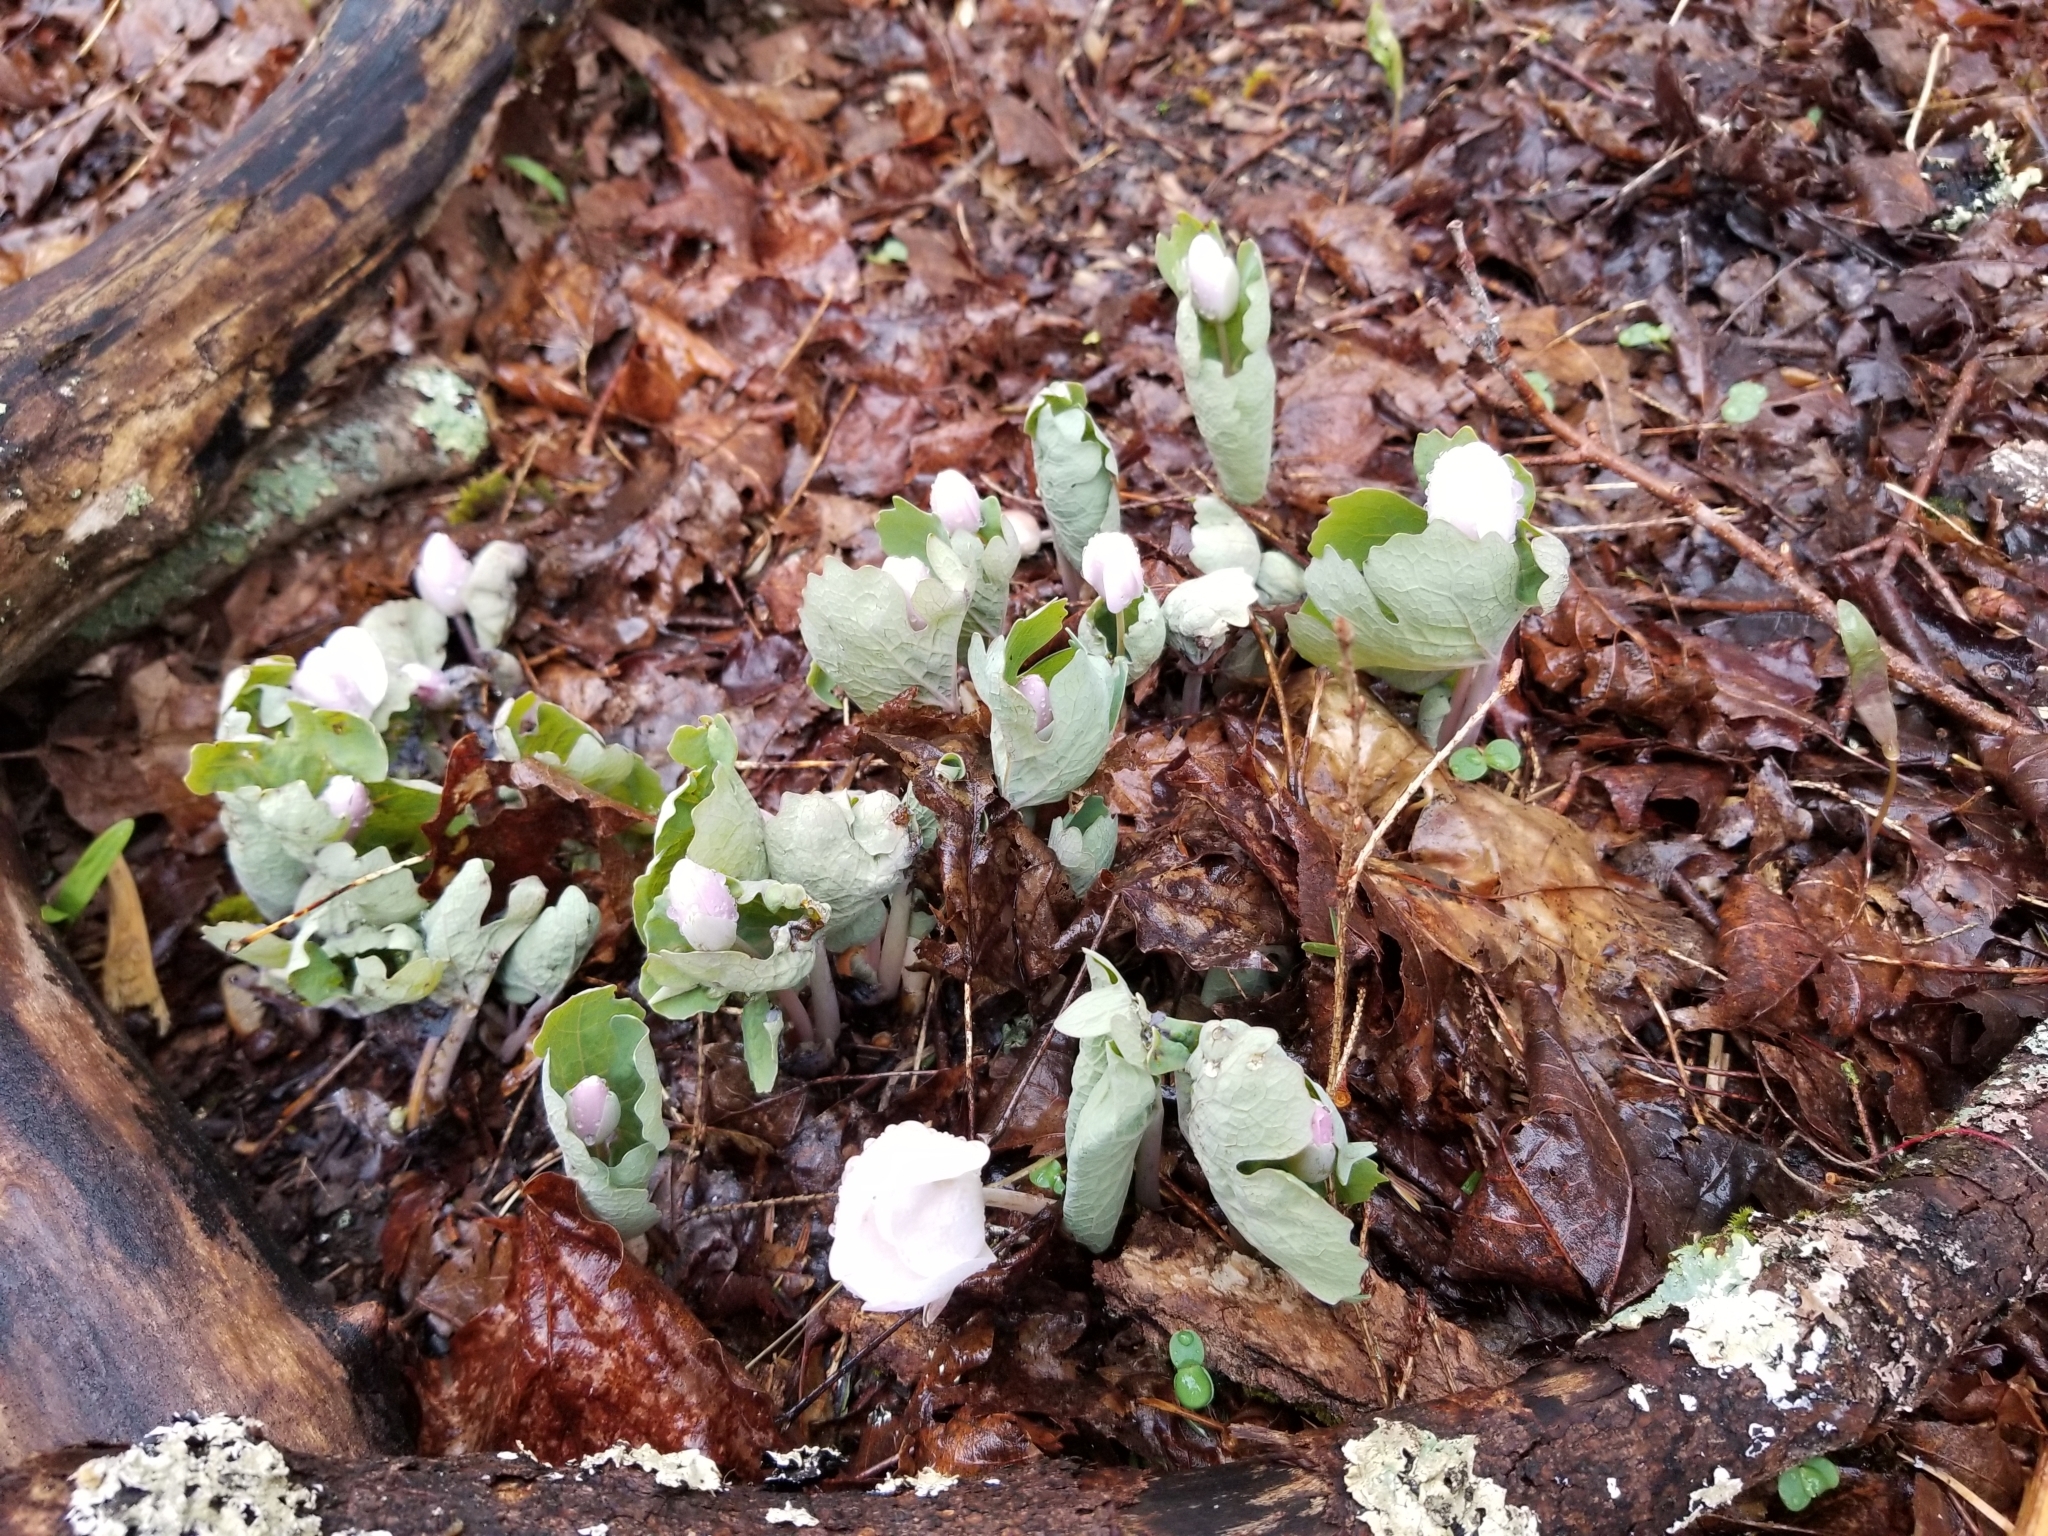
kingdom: Plantae
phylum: Tracheophyta
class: Magnoliopsida
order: Ranunculales
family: Papaveraceae
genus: Sanguinaria
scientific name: Sanguinaria canadensis
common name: Bloodroot
